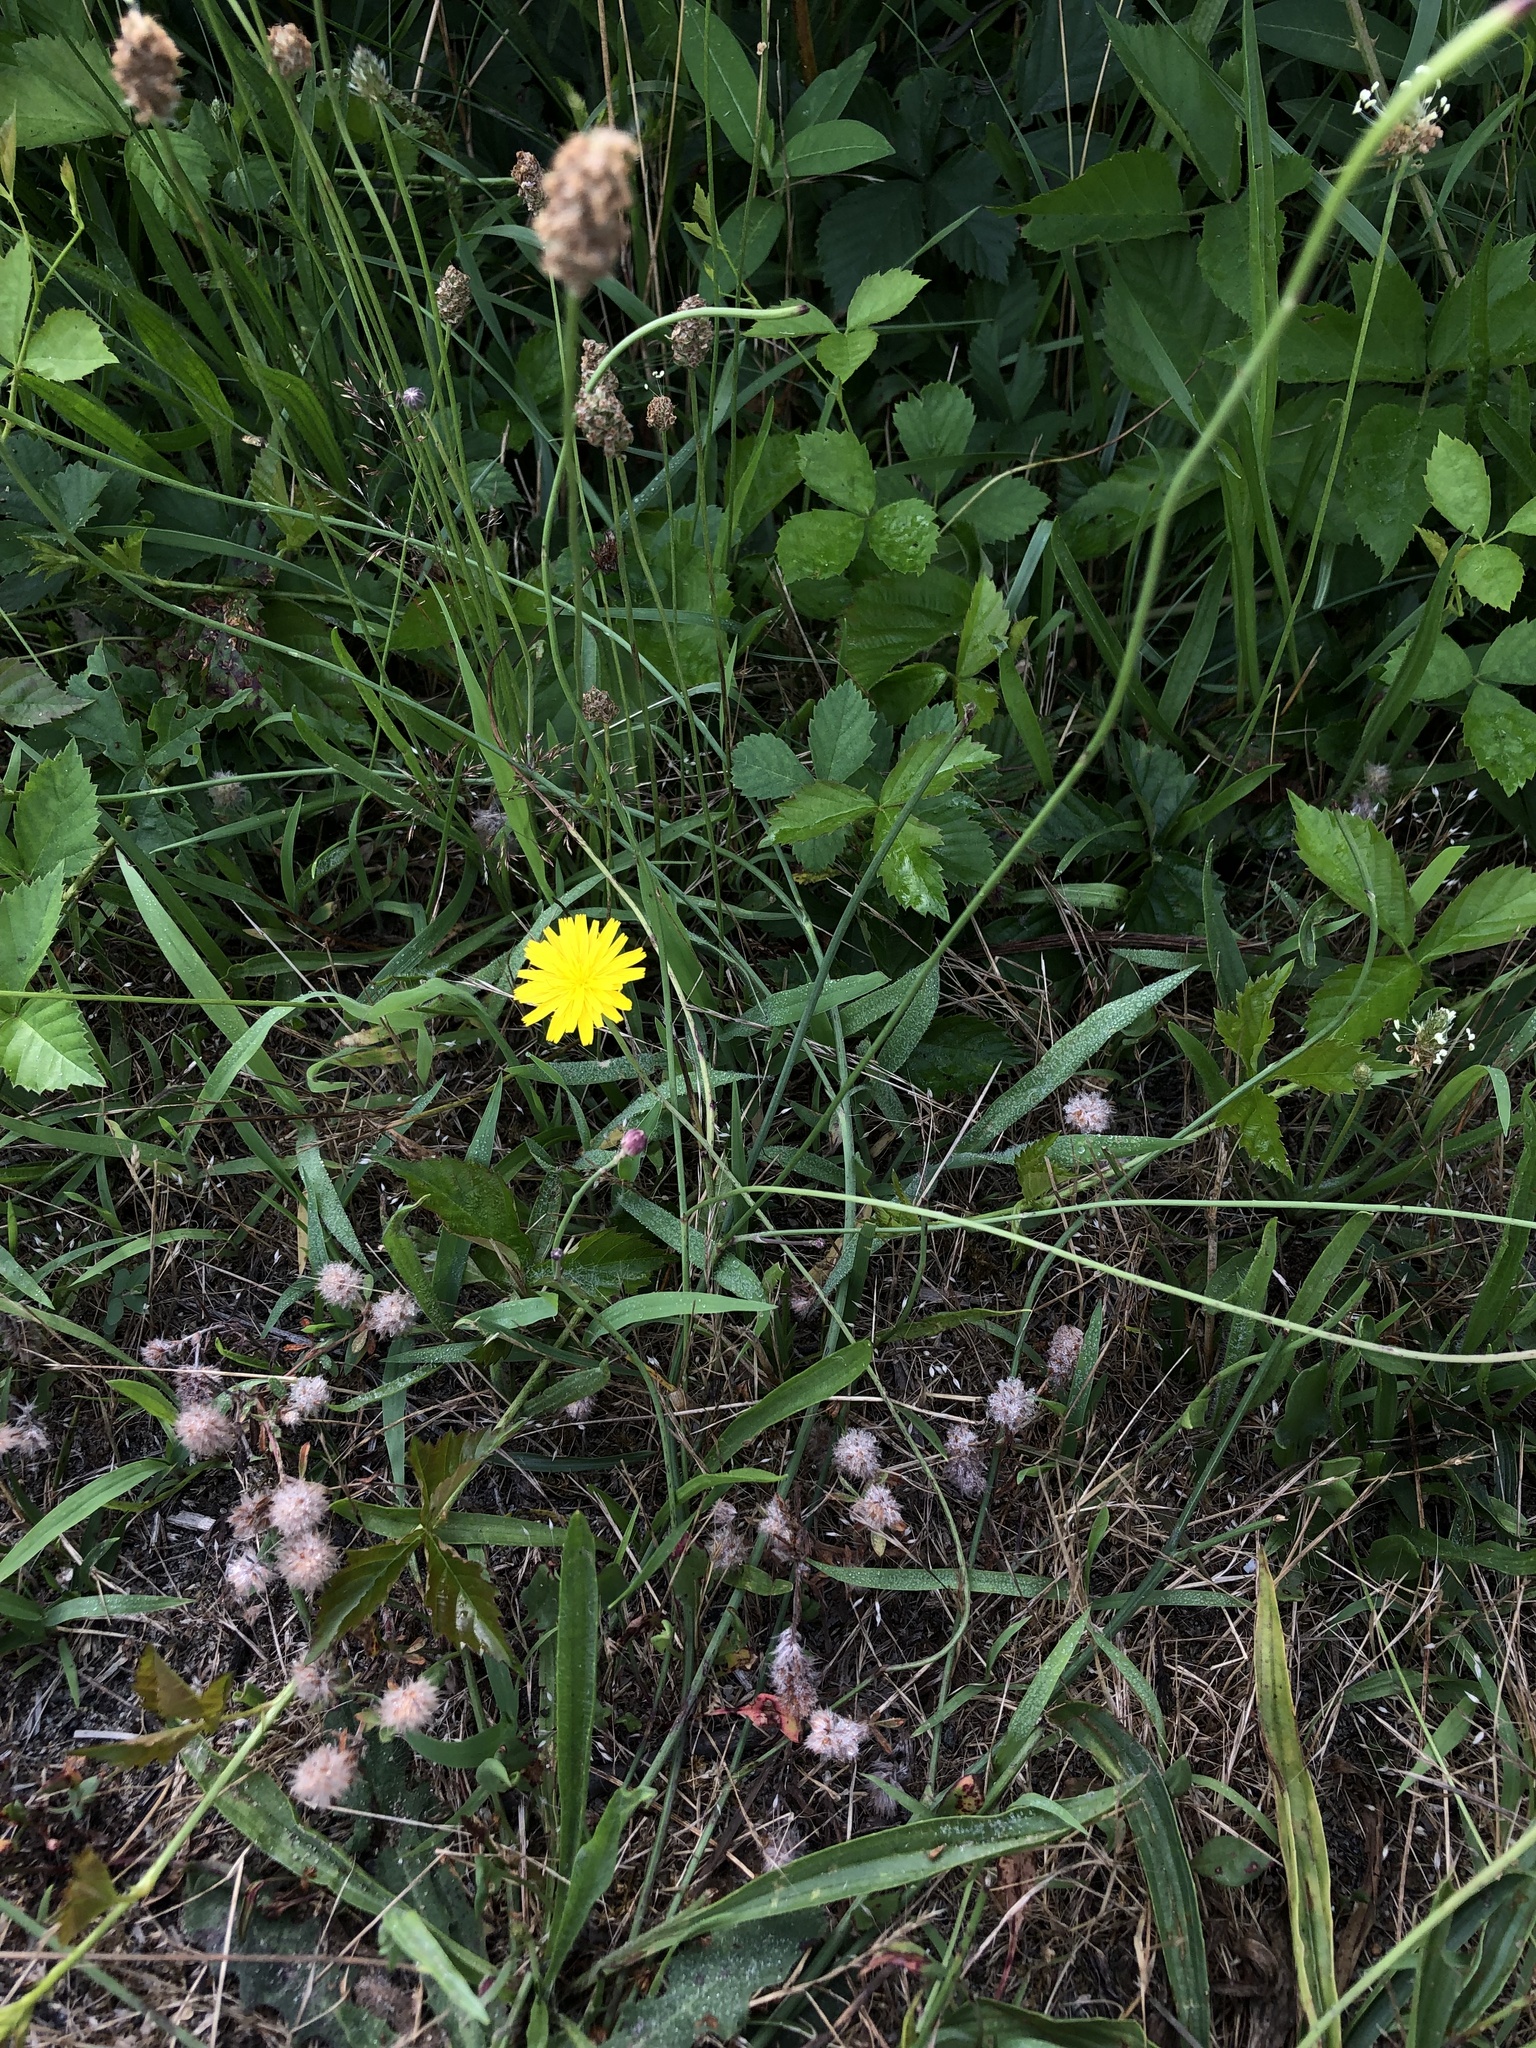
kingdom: Plantae
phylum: Tracheophyta
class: Magnoliopsida
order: Asterales
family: Asteraceae
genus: Hypochaeris
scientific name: Hypochaeris radicata
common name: Flatweed
